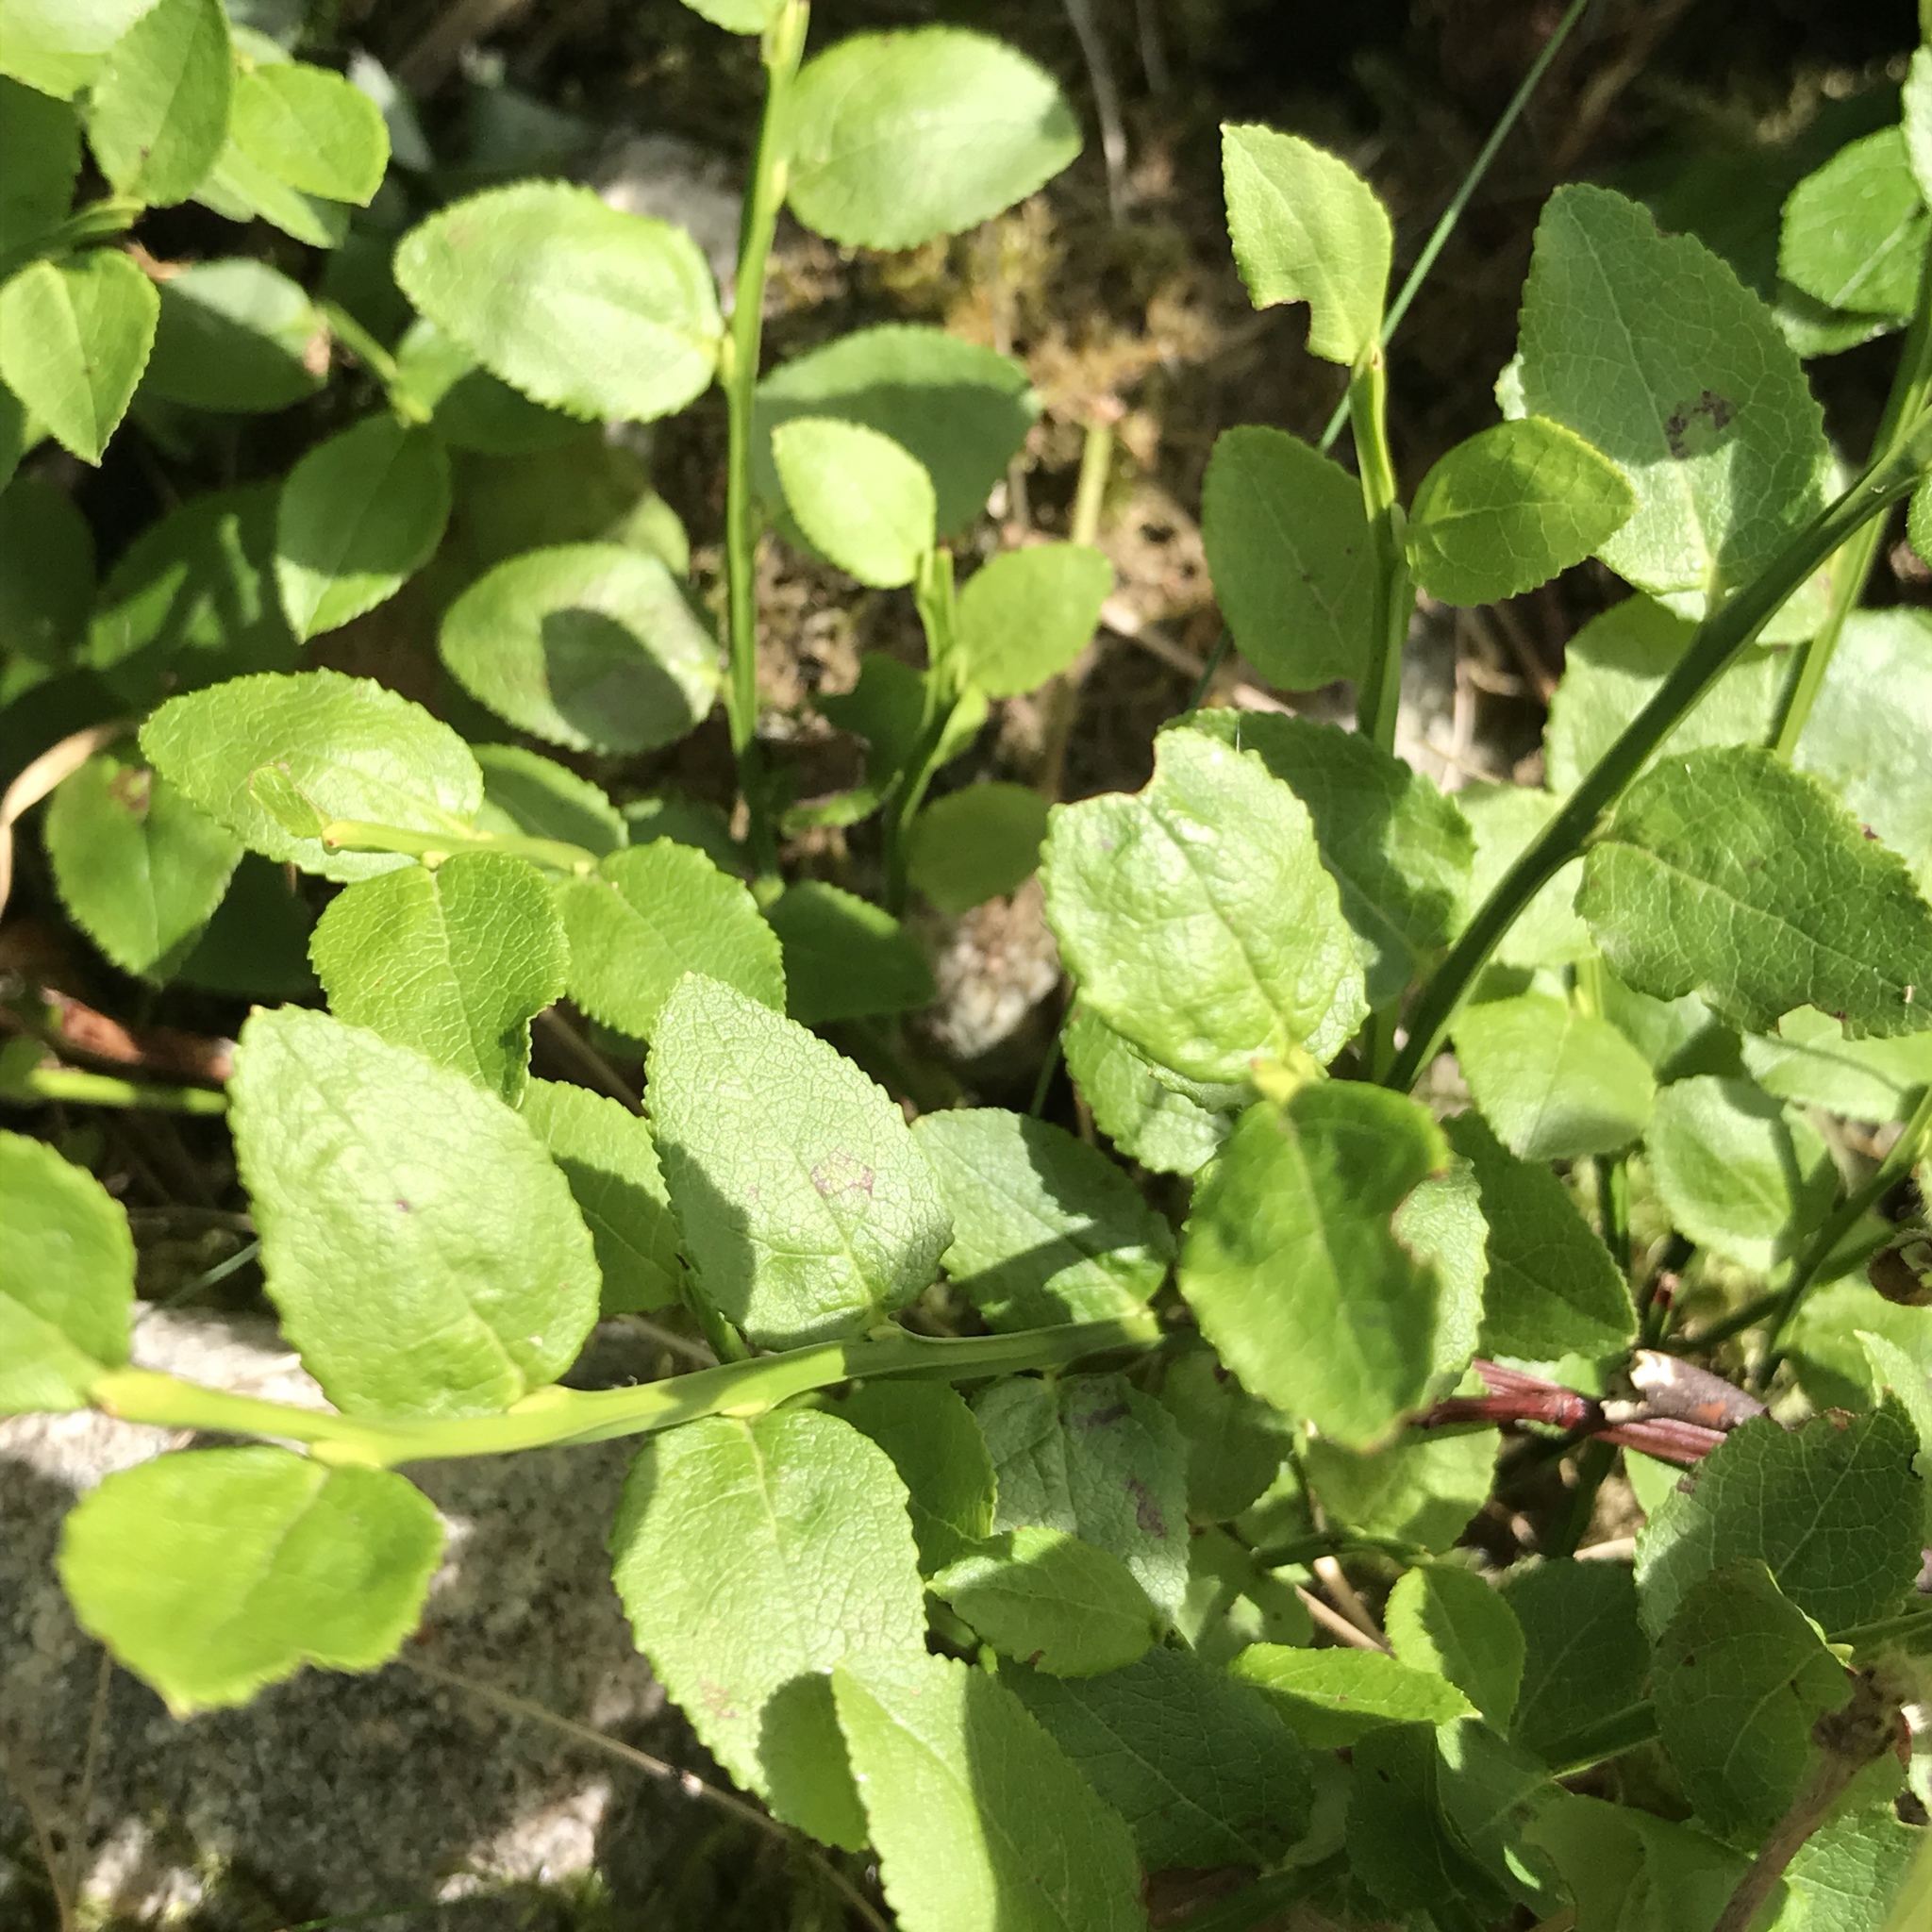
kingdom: Plantae
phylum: Tracheophyta
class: Magnoliopsida
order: Ericales
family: Ericaceae
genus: Vaccinium
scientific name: Vaccinium myrtillus
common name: Bilberry
